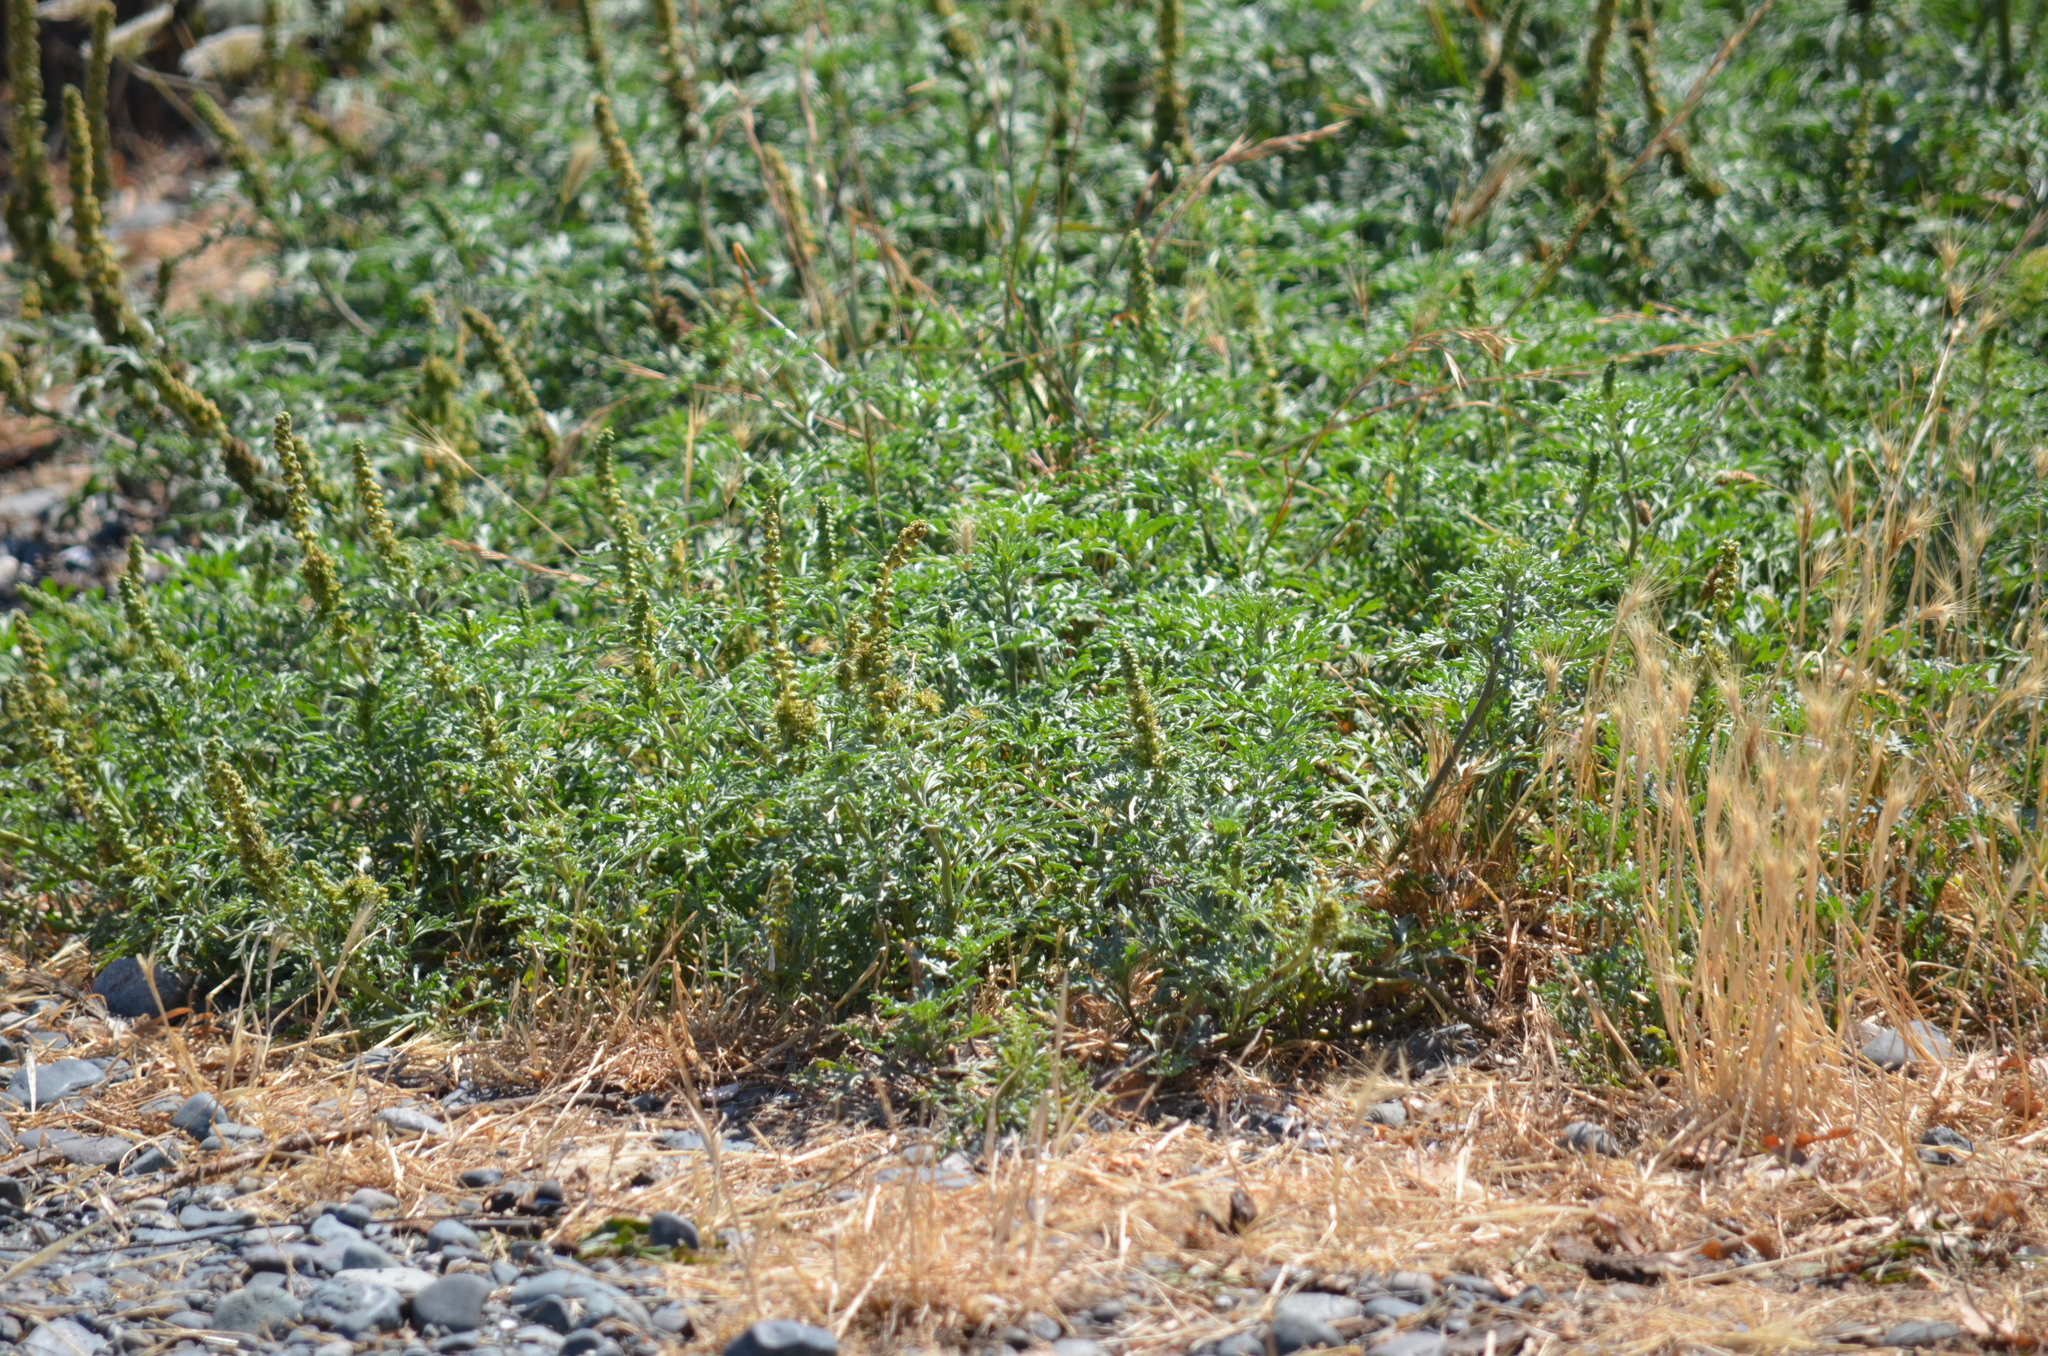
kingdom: Plantae
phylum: Tracheophyta
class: Magnoliopsida
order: Asterales
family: Asteraceae
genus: Ambrosia
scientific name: Ambrosia chamissonis
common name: Beachbur
